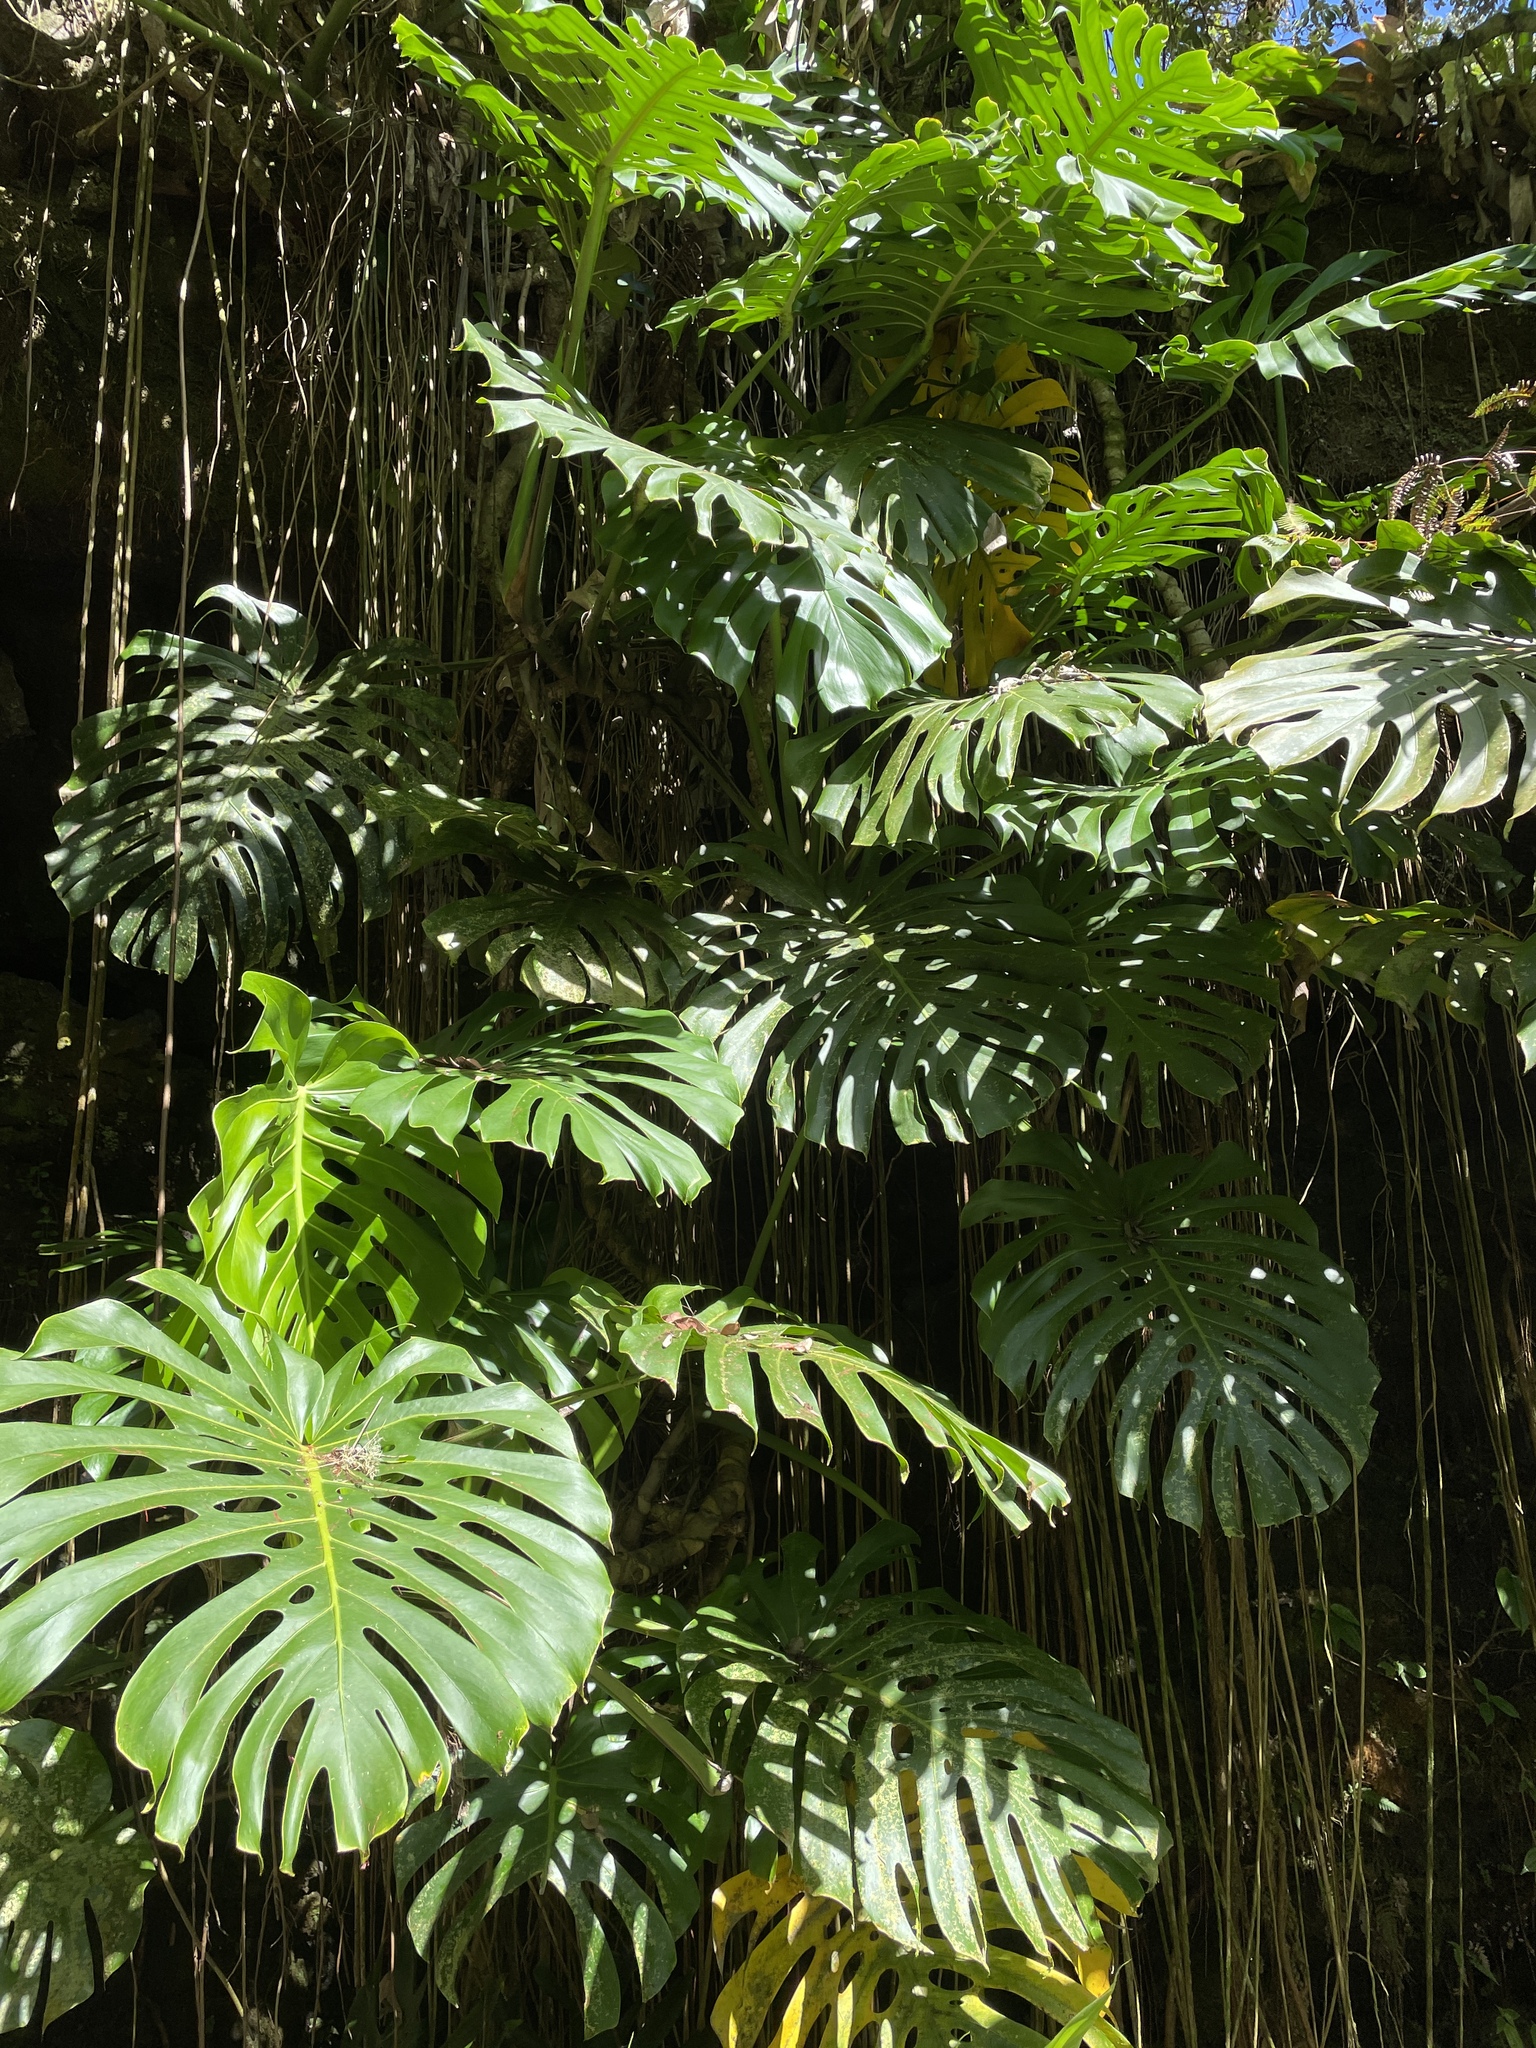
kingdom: Plantae
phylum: Tracheophyta
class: Liliopsida
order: Alismatales
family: Araceae
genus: Monstera
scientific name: Monstera deliciosa
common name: Cut-leaf-philodendron
